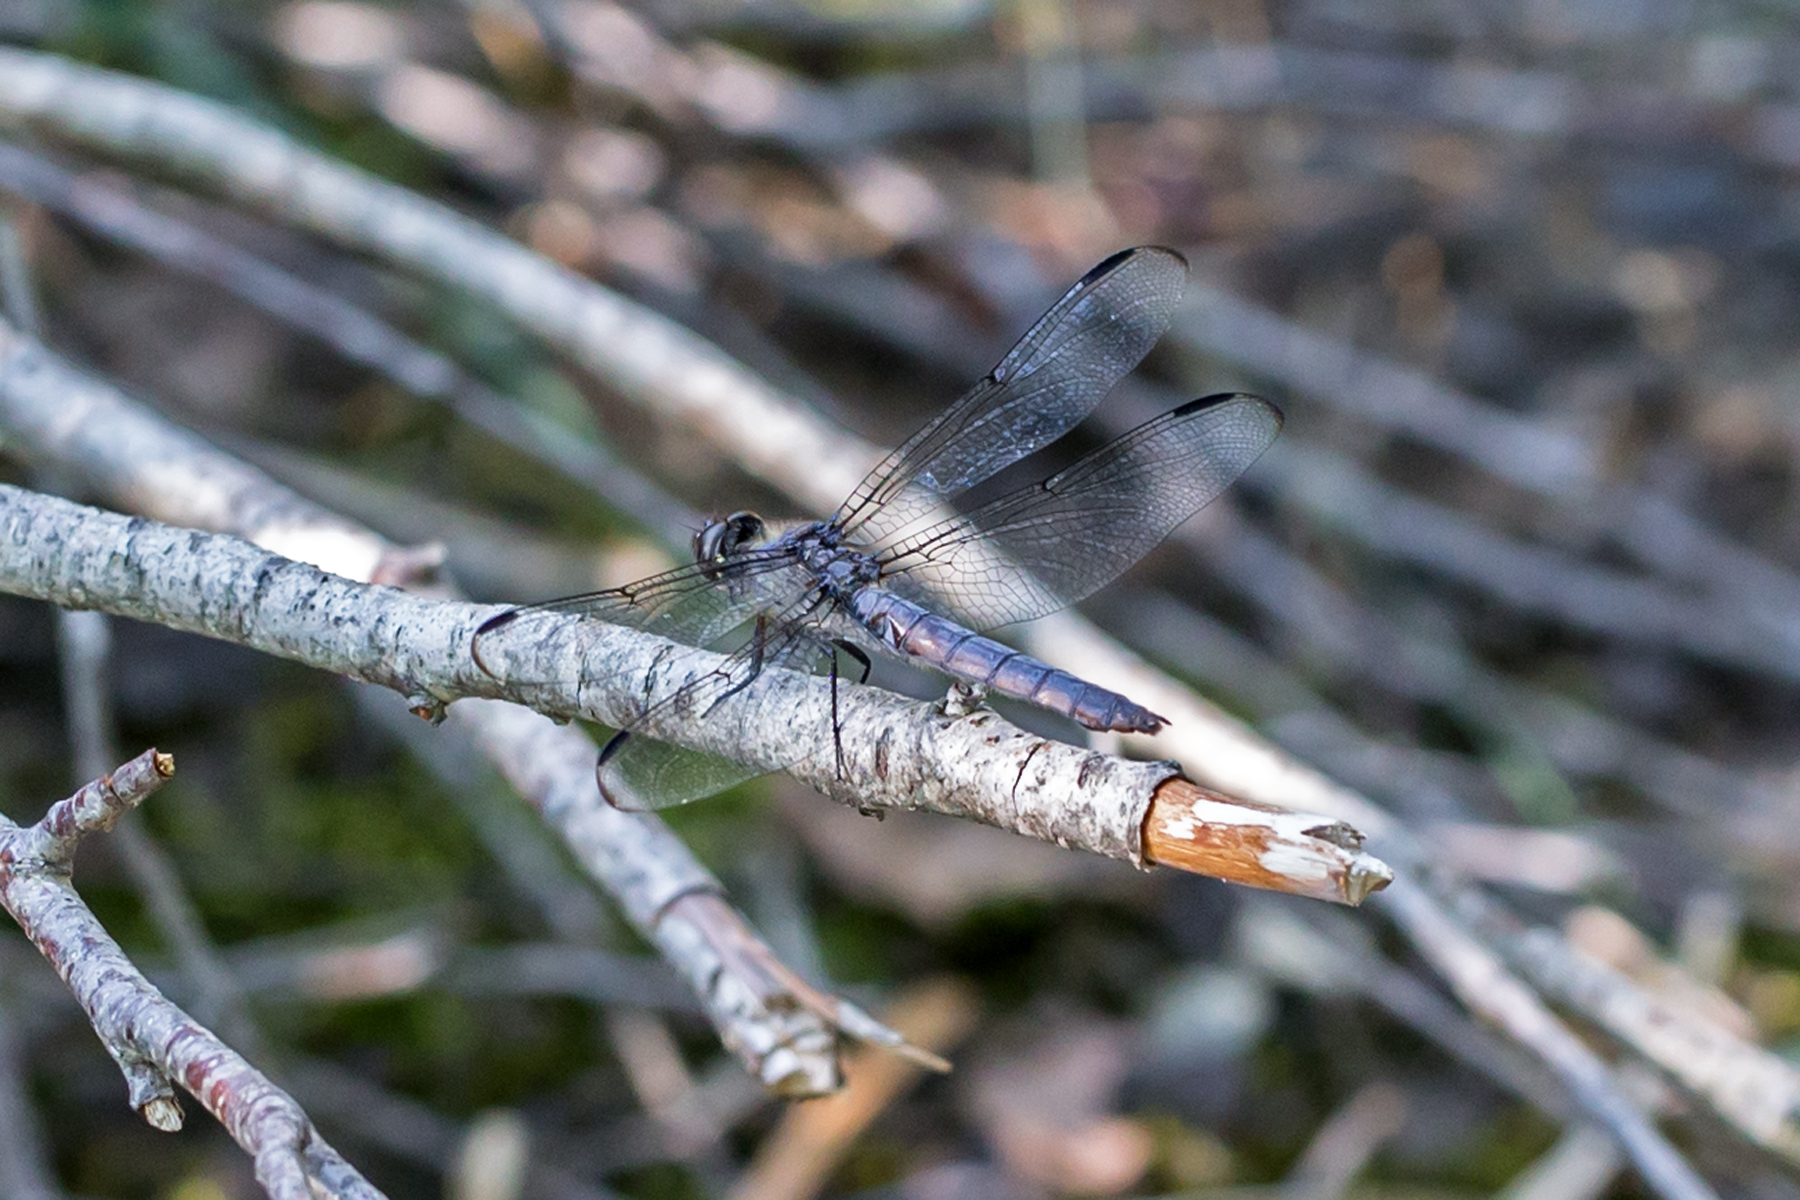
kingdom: Animalia
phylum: Arthropoda
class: Insecta
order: Odonata
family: Libellulidae
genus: Libellula
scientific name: Libellula incesta
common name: Slaty skimmer
